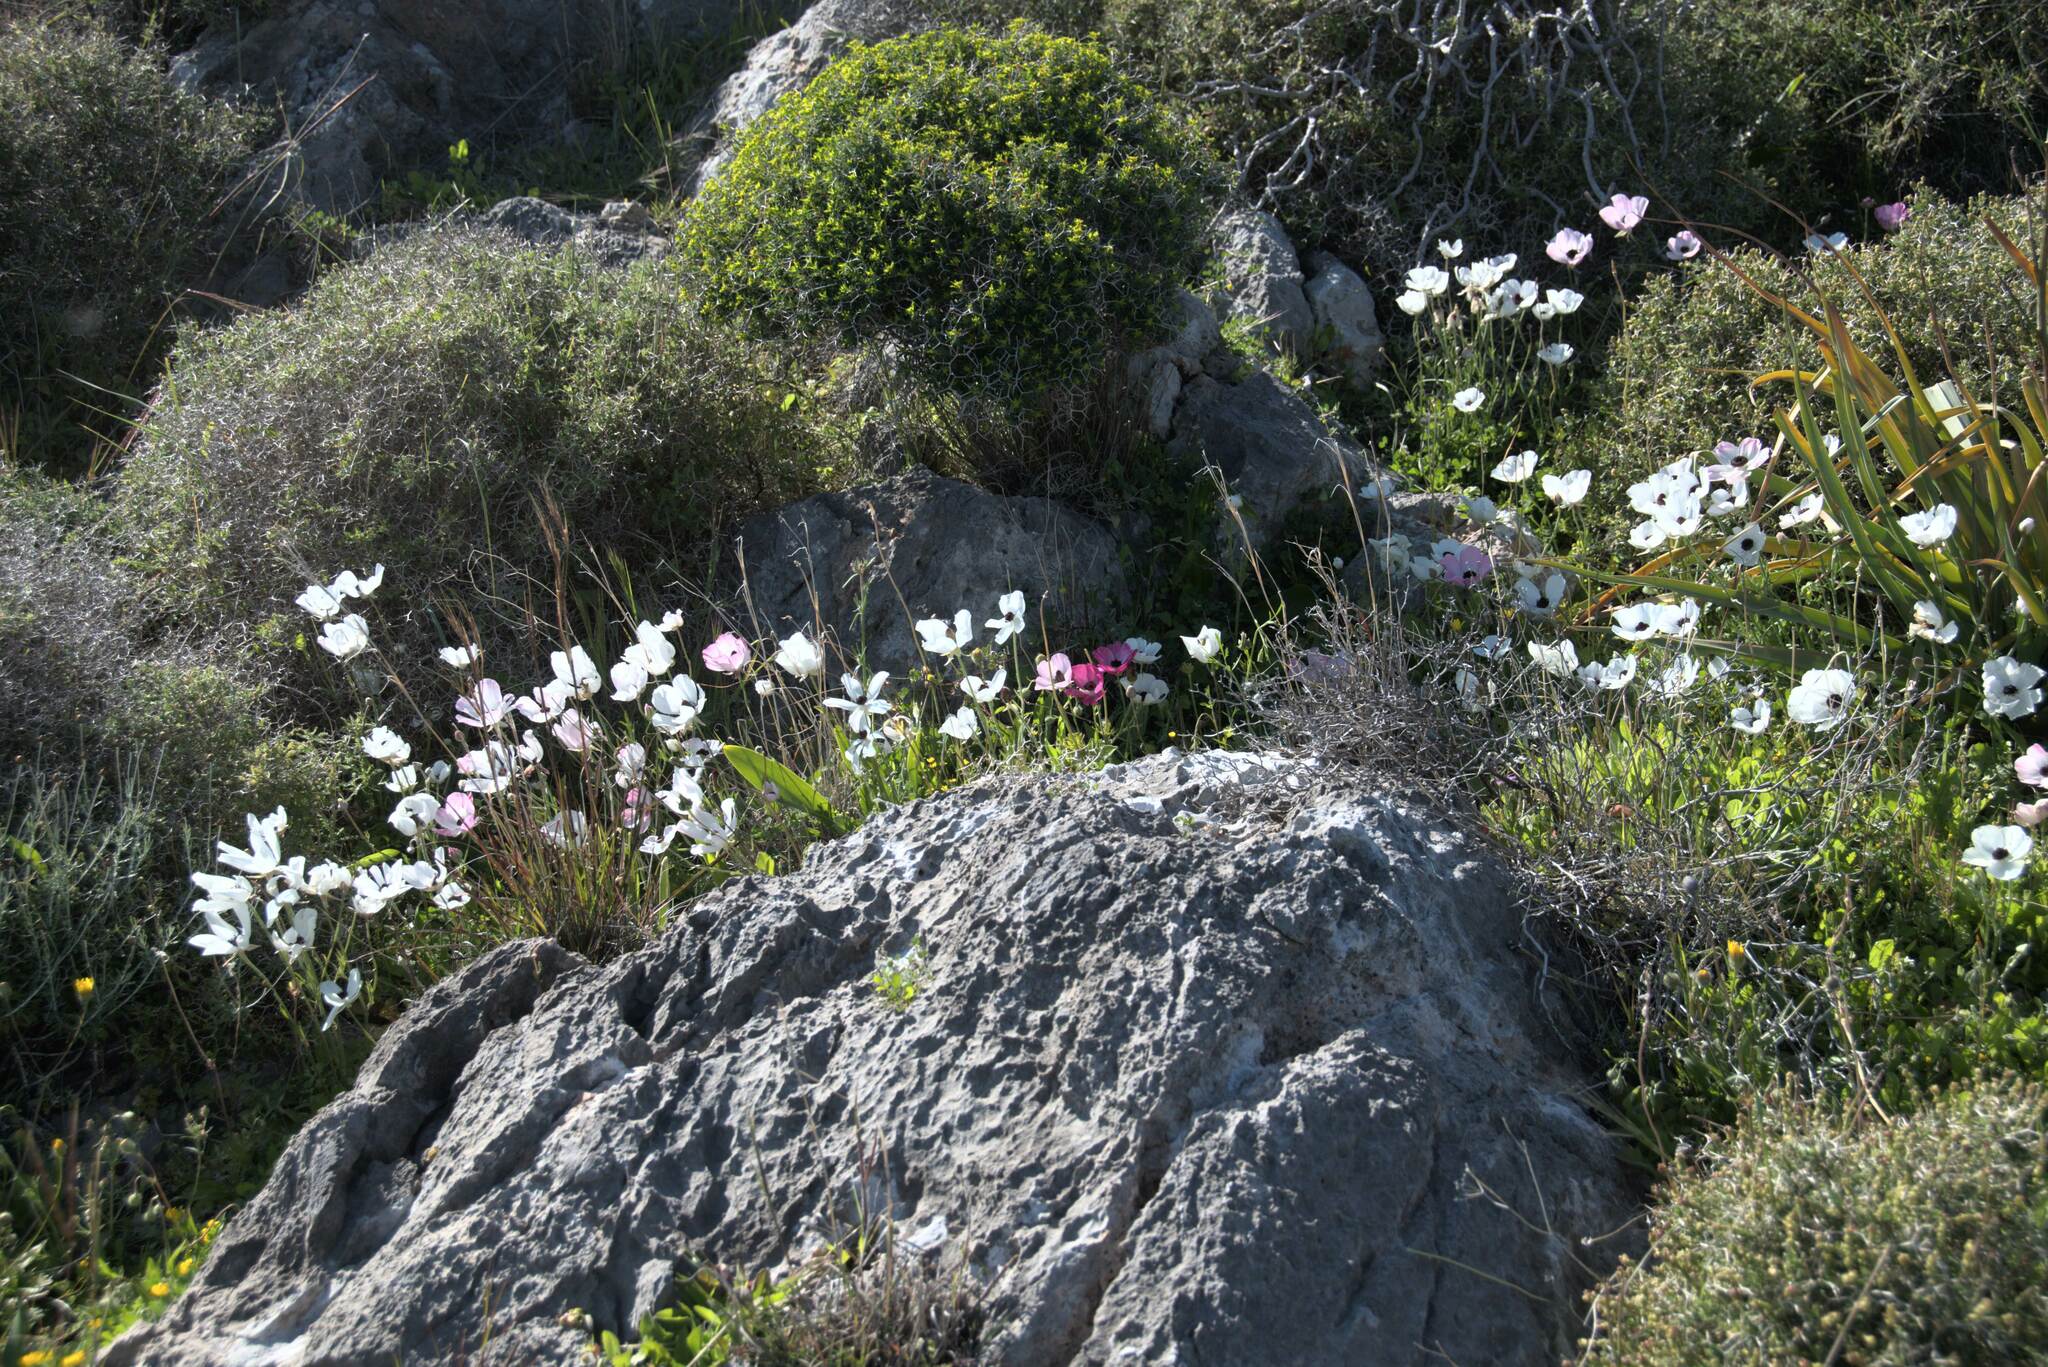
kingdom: Plantae
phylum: Tracheophyta
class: Magnoliopsida
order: Ranunculales
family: Ranunculaceae
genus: Ranunculus
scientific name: Ranunculus asiaticus
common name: Persian buttercup
